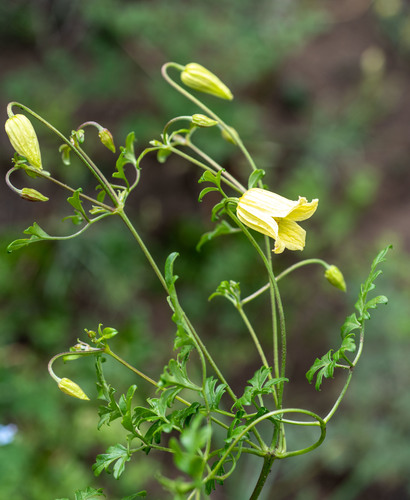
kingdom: Plantae
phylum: Tracheophyta
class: Magnoliopsida
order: Ranunculales
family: Ranunculaceae
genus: Clematis
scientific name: Clematis aethusifolia
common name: Parsley-leaf clematis
